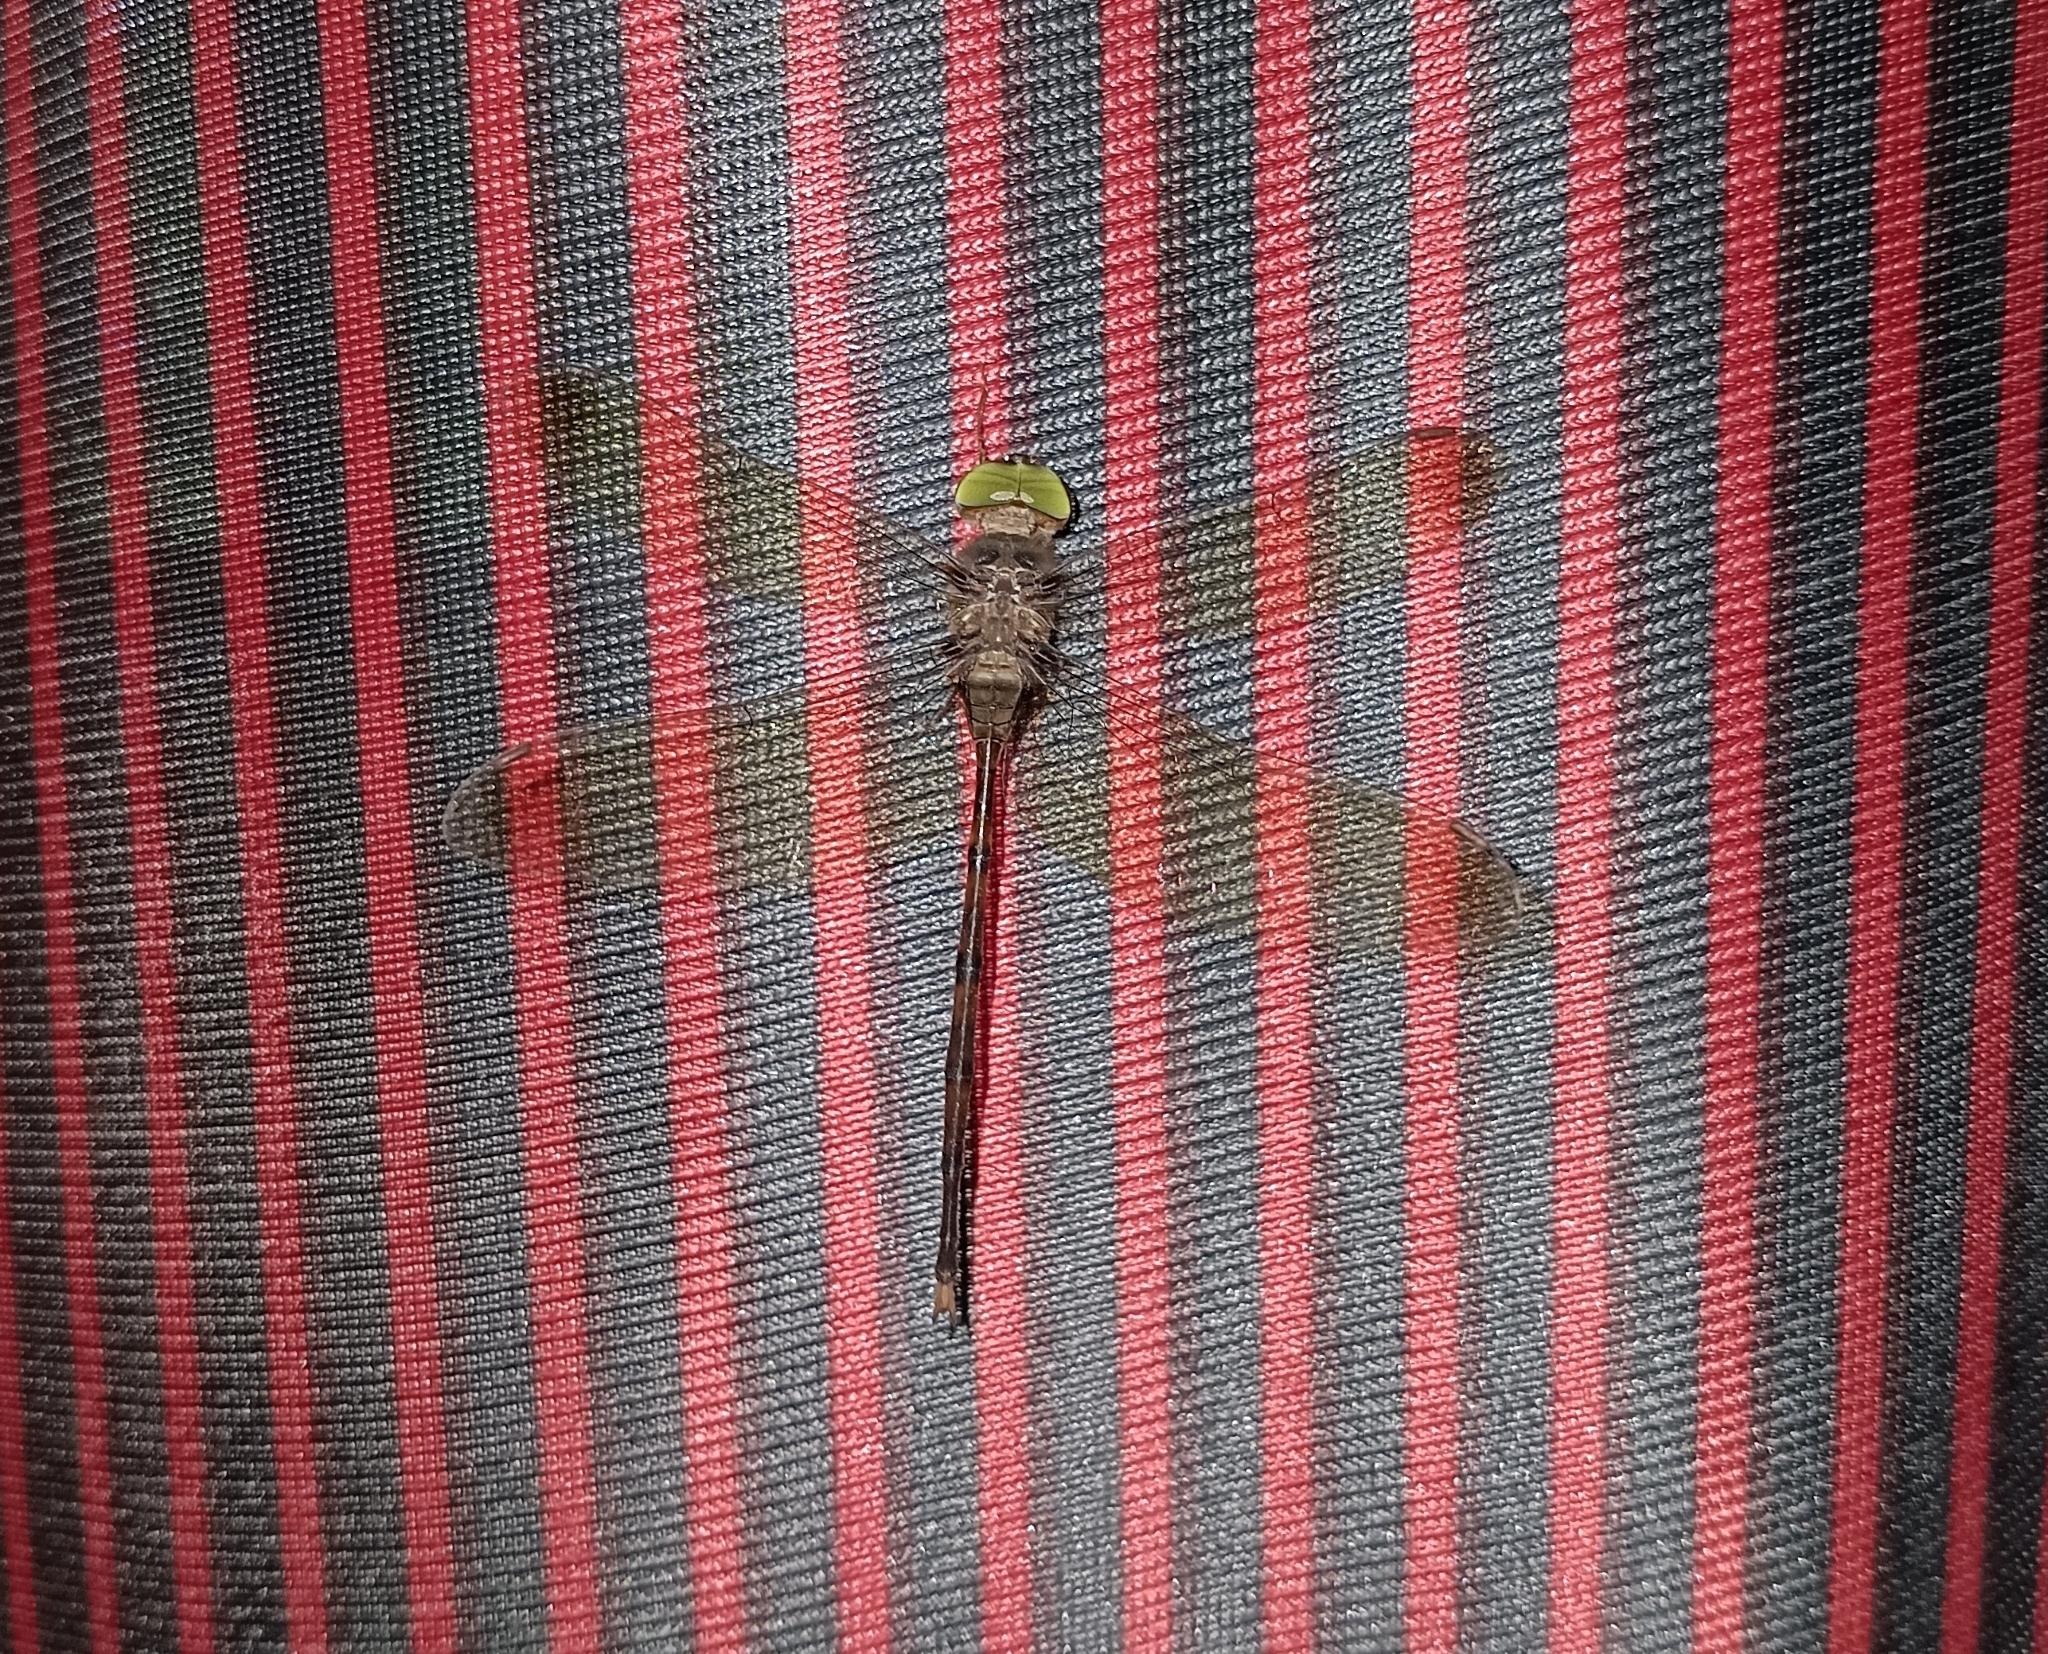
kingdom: Animalia
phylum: Arthropoda
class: Insecta
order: Odonata
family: Libellulidae
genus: Zyxomma
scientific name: Zyxomma petiolatum
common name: Dingy dusk-darter
